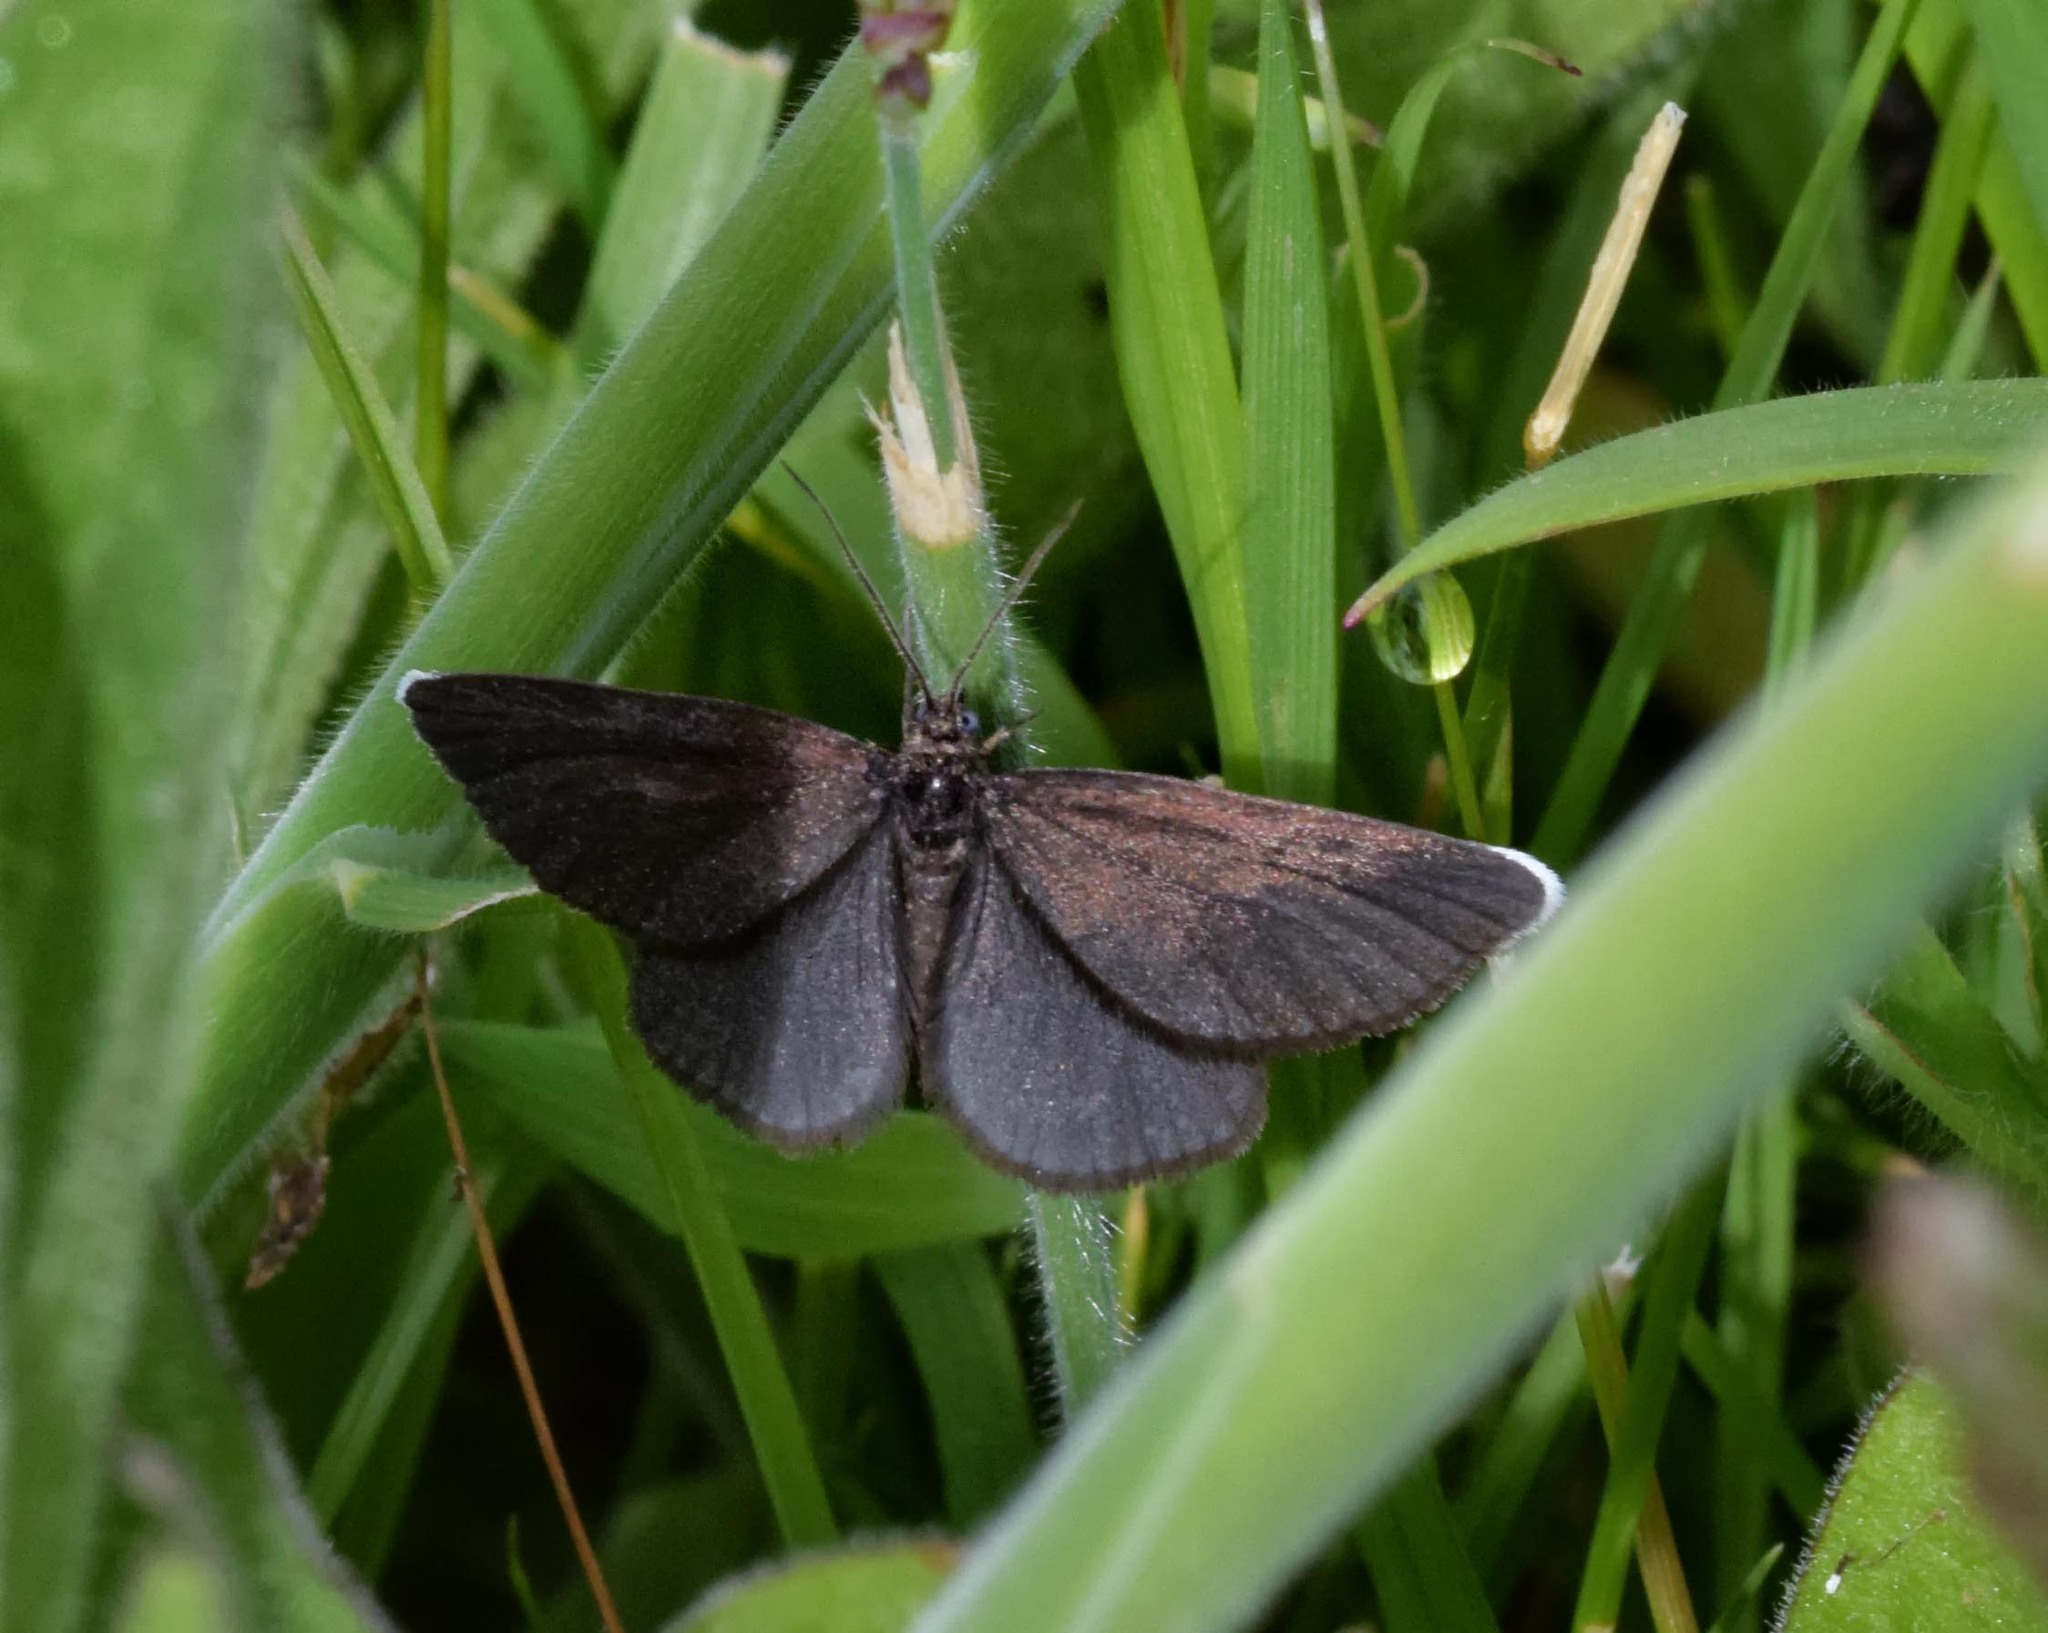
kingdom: Animalia
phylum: Arthropoda
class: Insecta
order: Lepidoptera
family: Geometridae
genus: Odezia
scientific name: Odezia atrata
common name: Chimney sweeper
